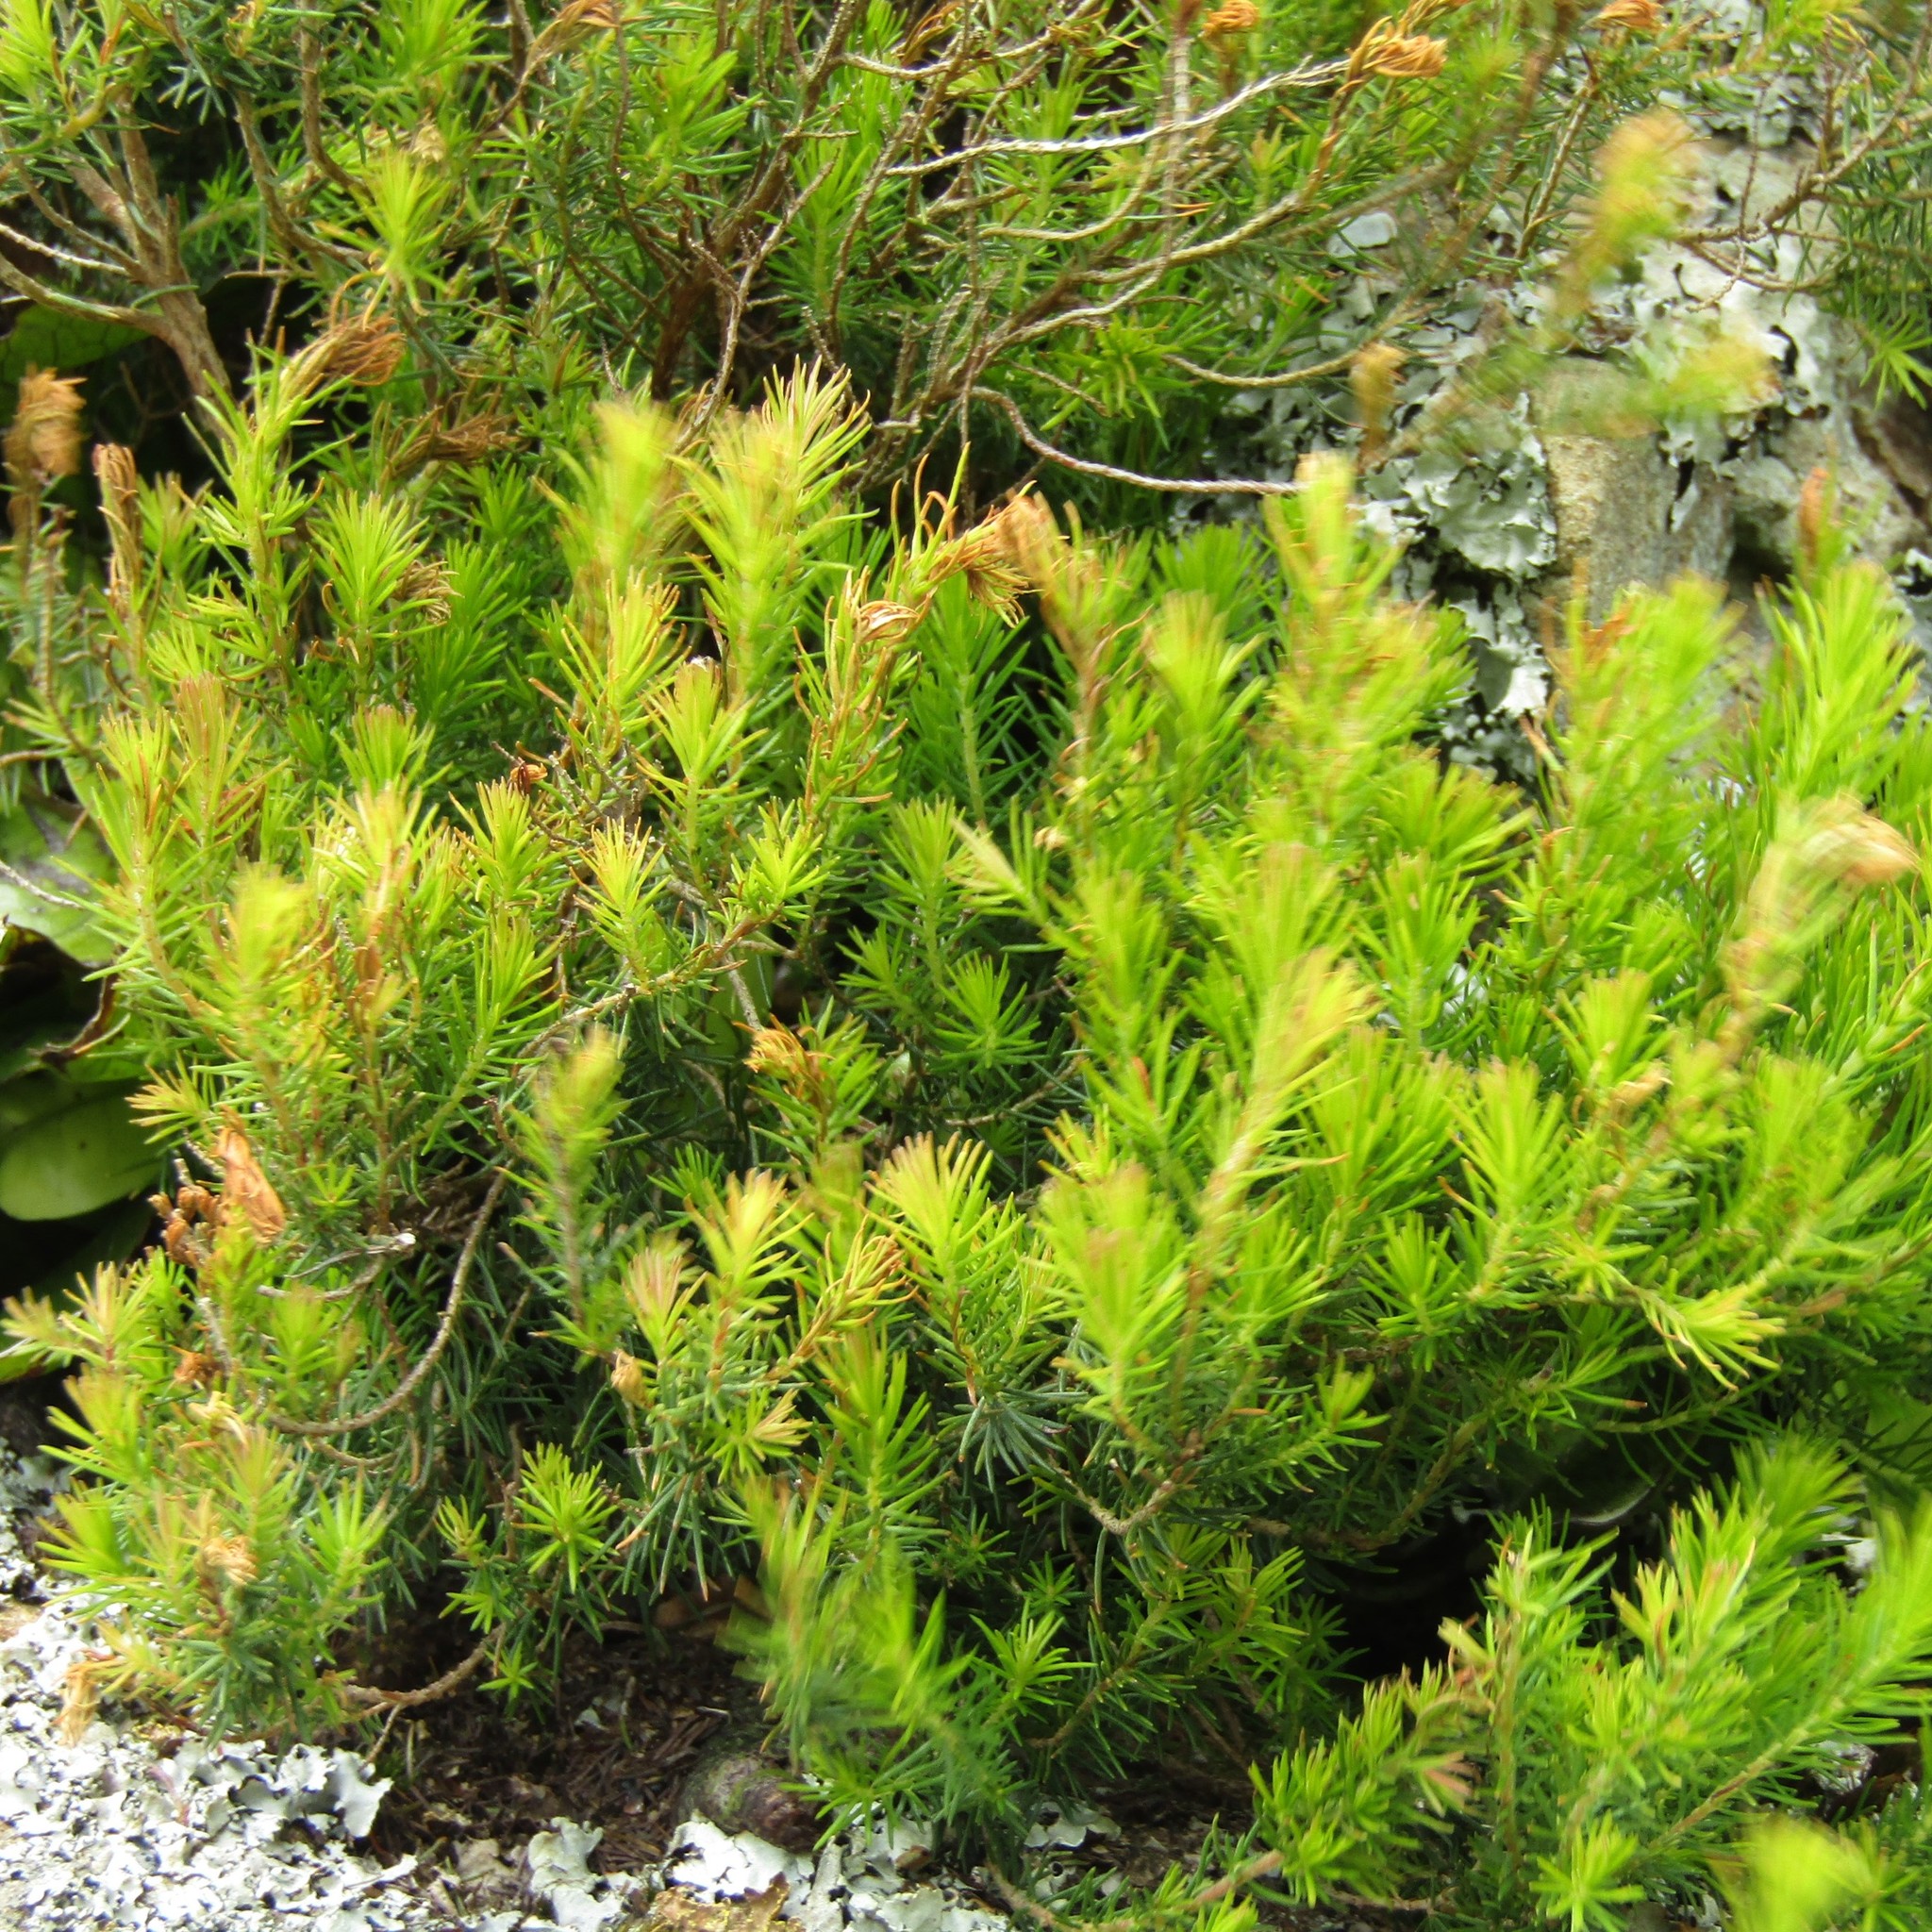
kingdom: Plantae
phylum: Tracheophyta
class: Magnoliopsida
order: Ericales
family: Ericaceae
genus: Erica
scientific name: Erica lusitanica
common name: Spanish heath
